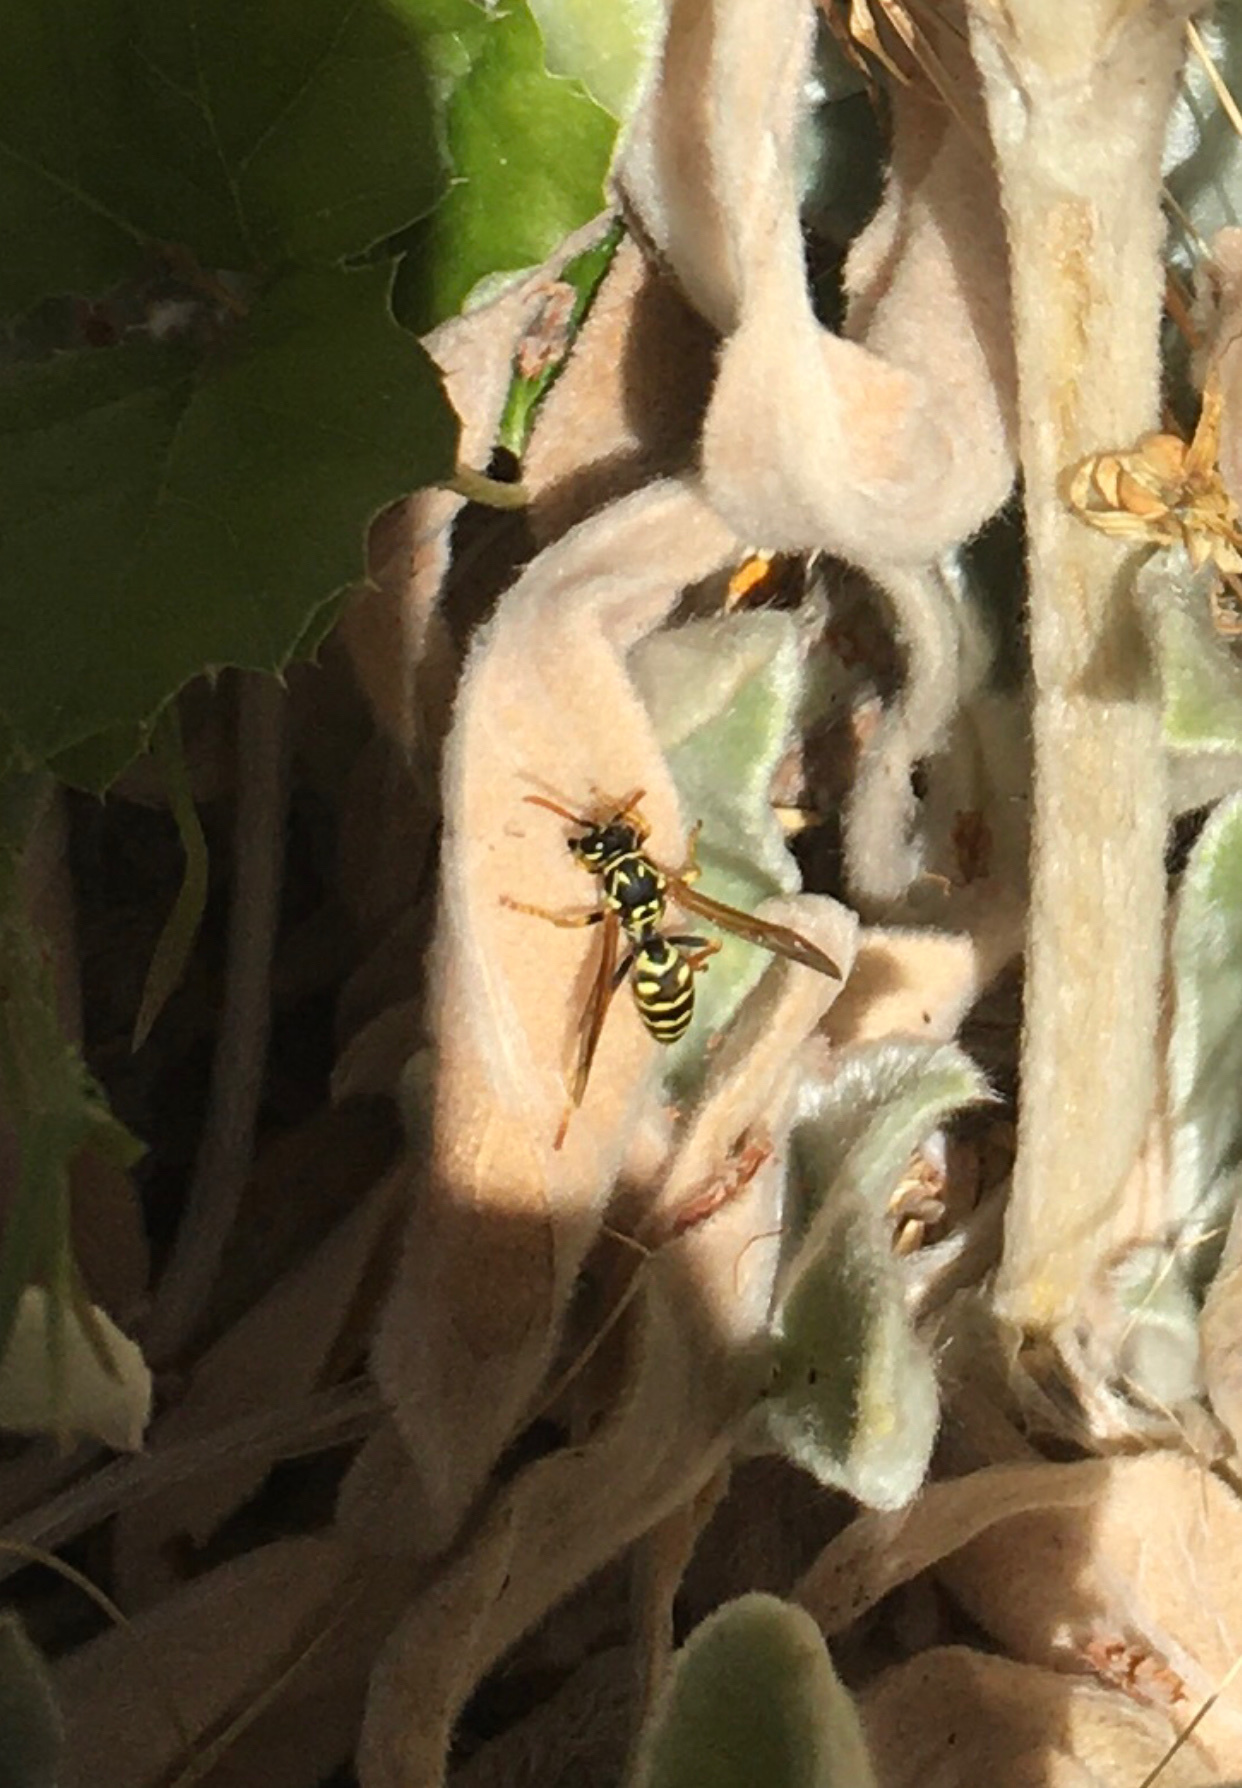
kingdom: Animalia
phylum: Arthropoda
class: Insecta
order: Hymenoptera
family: Eumenidae
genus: Polistes
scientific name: Polistes dominula
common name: Paper wasp
